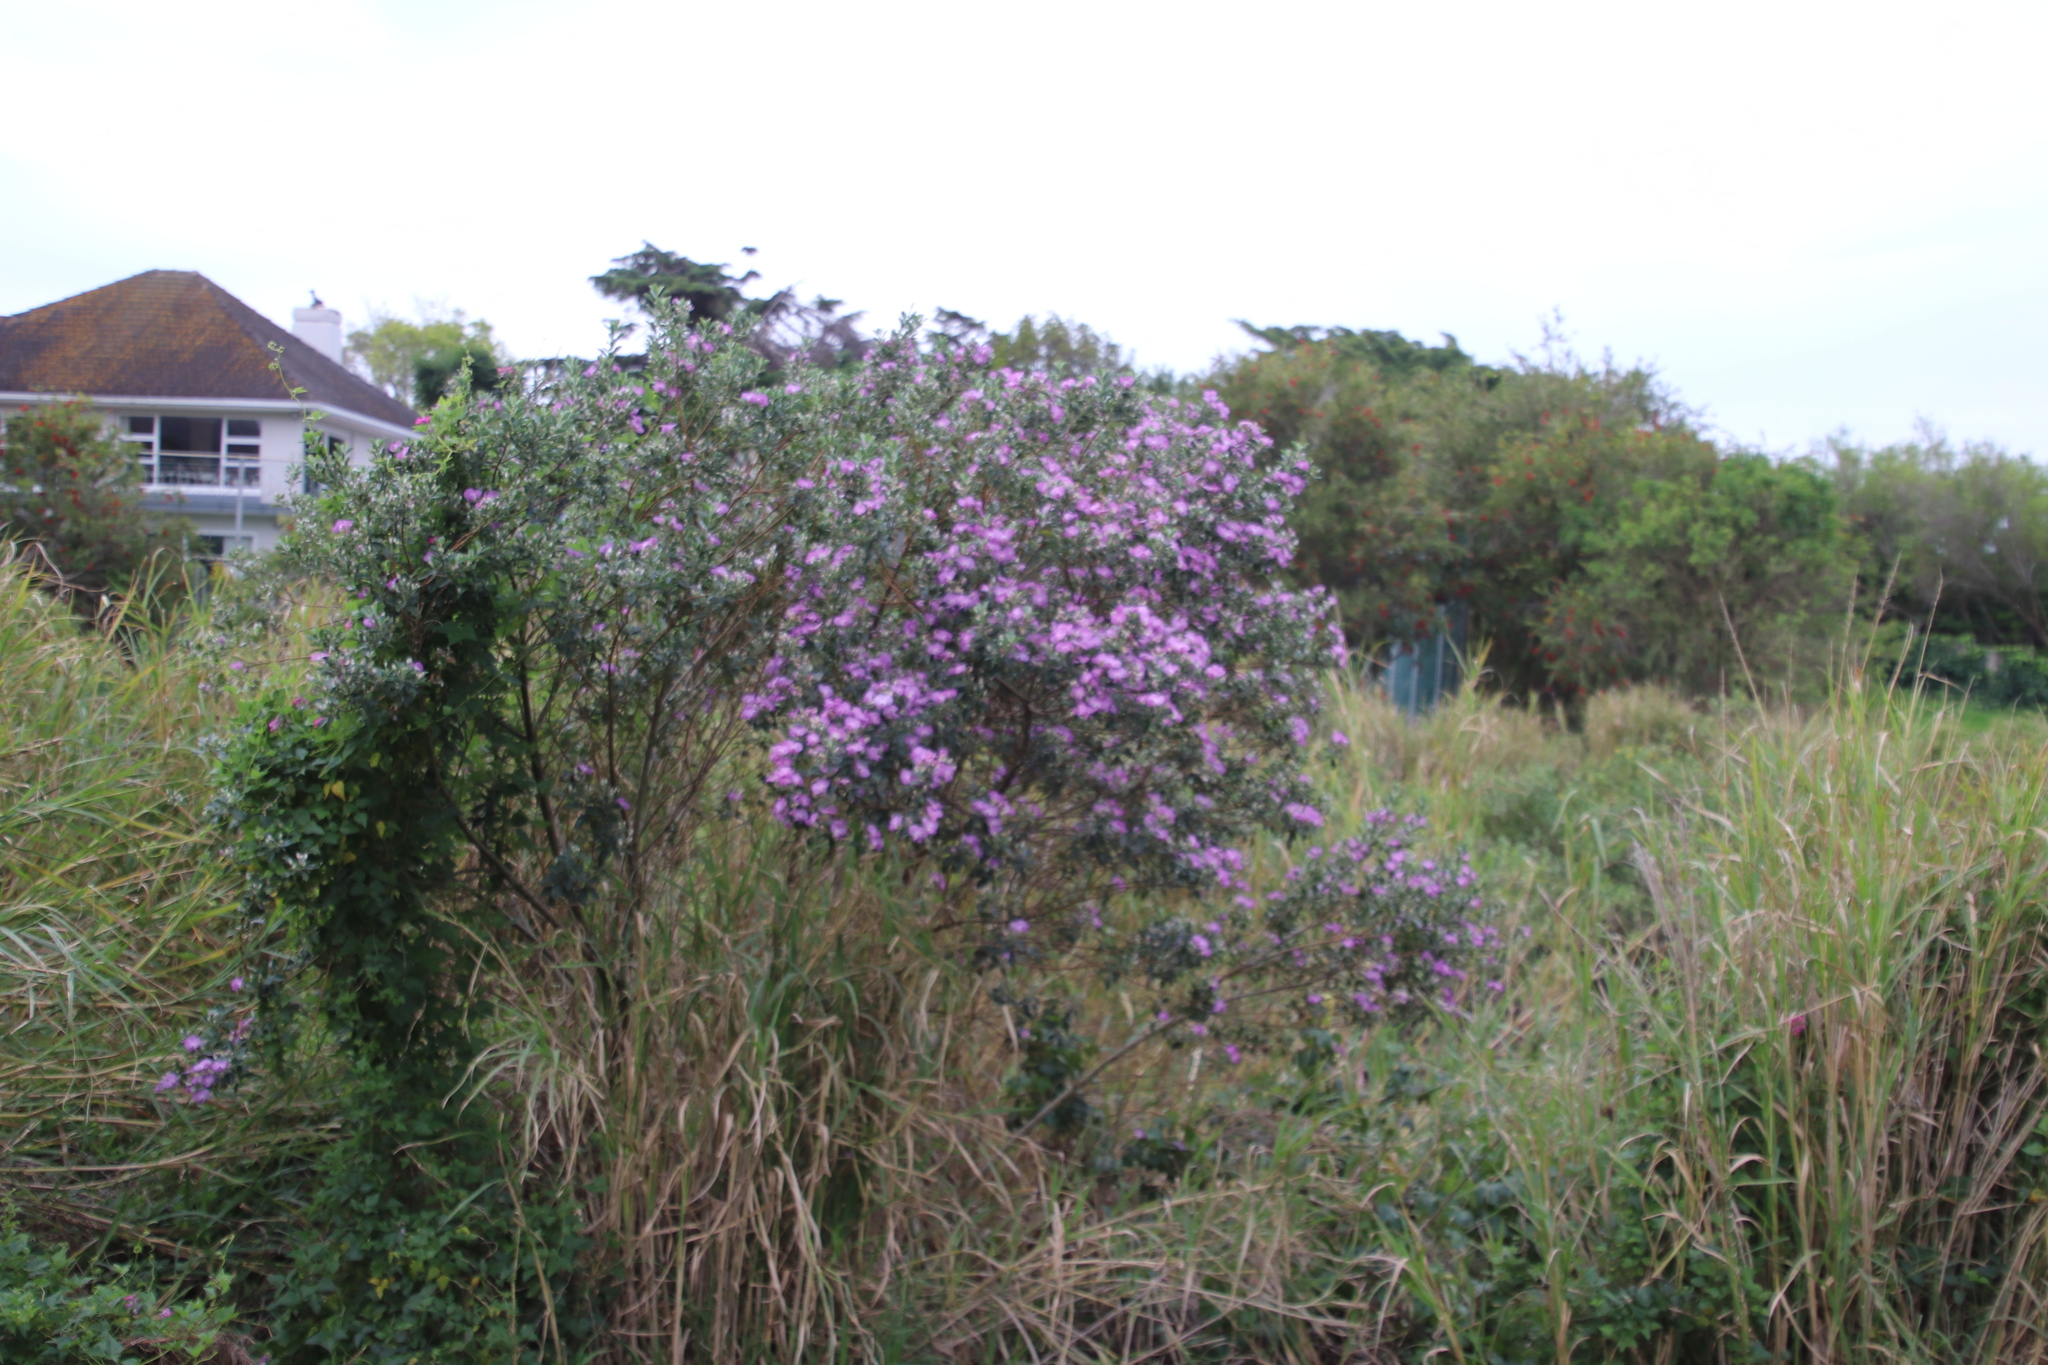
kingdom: Plantae
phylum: Tracheophyta
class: Magnoliopsida
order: Fabales
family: Fabaceae
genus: Podalyria
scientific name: Podalyria calyptrata
